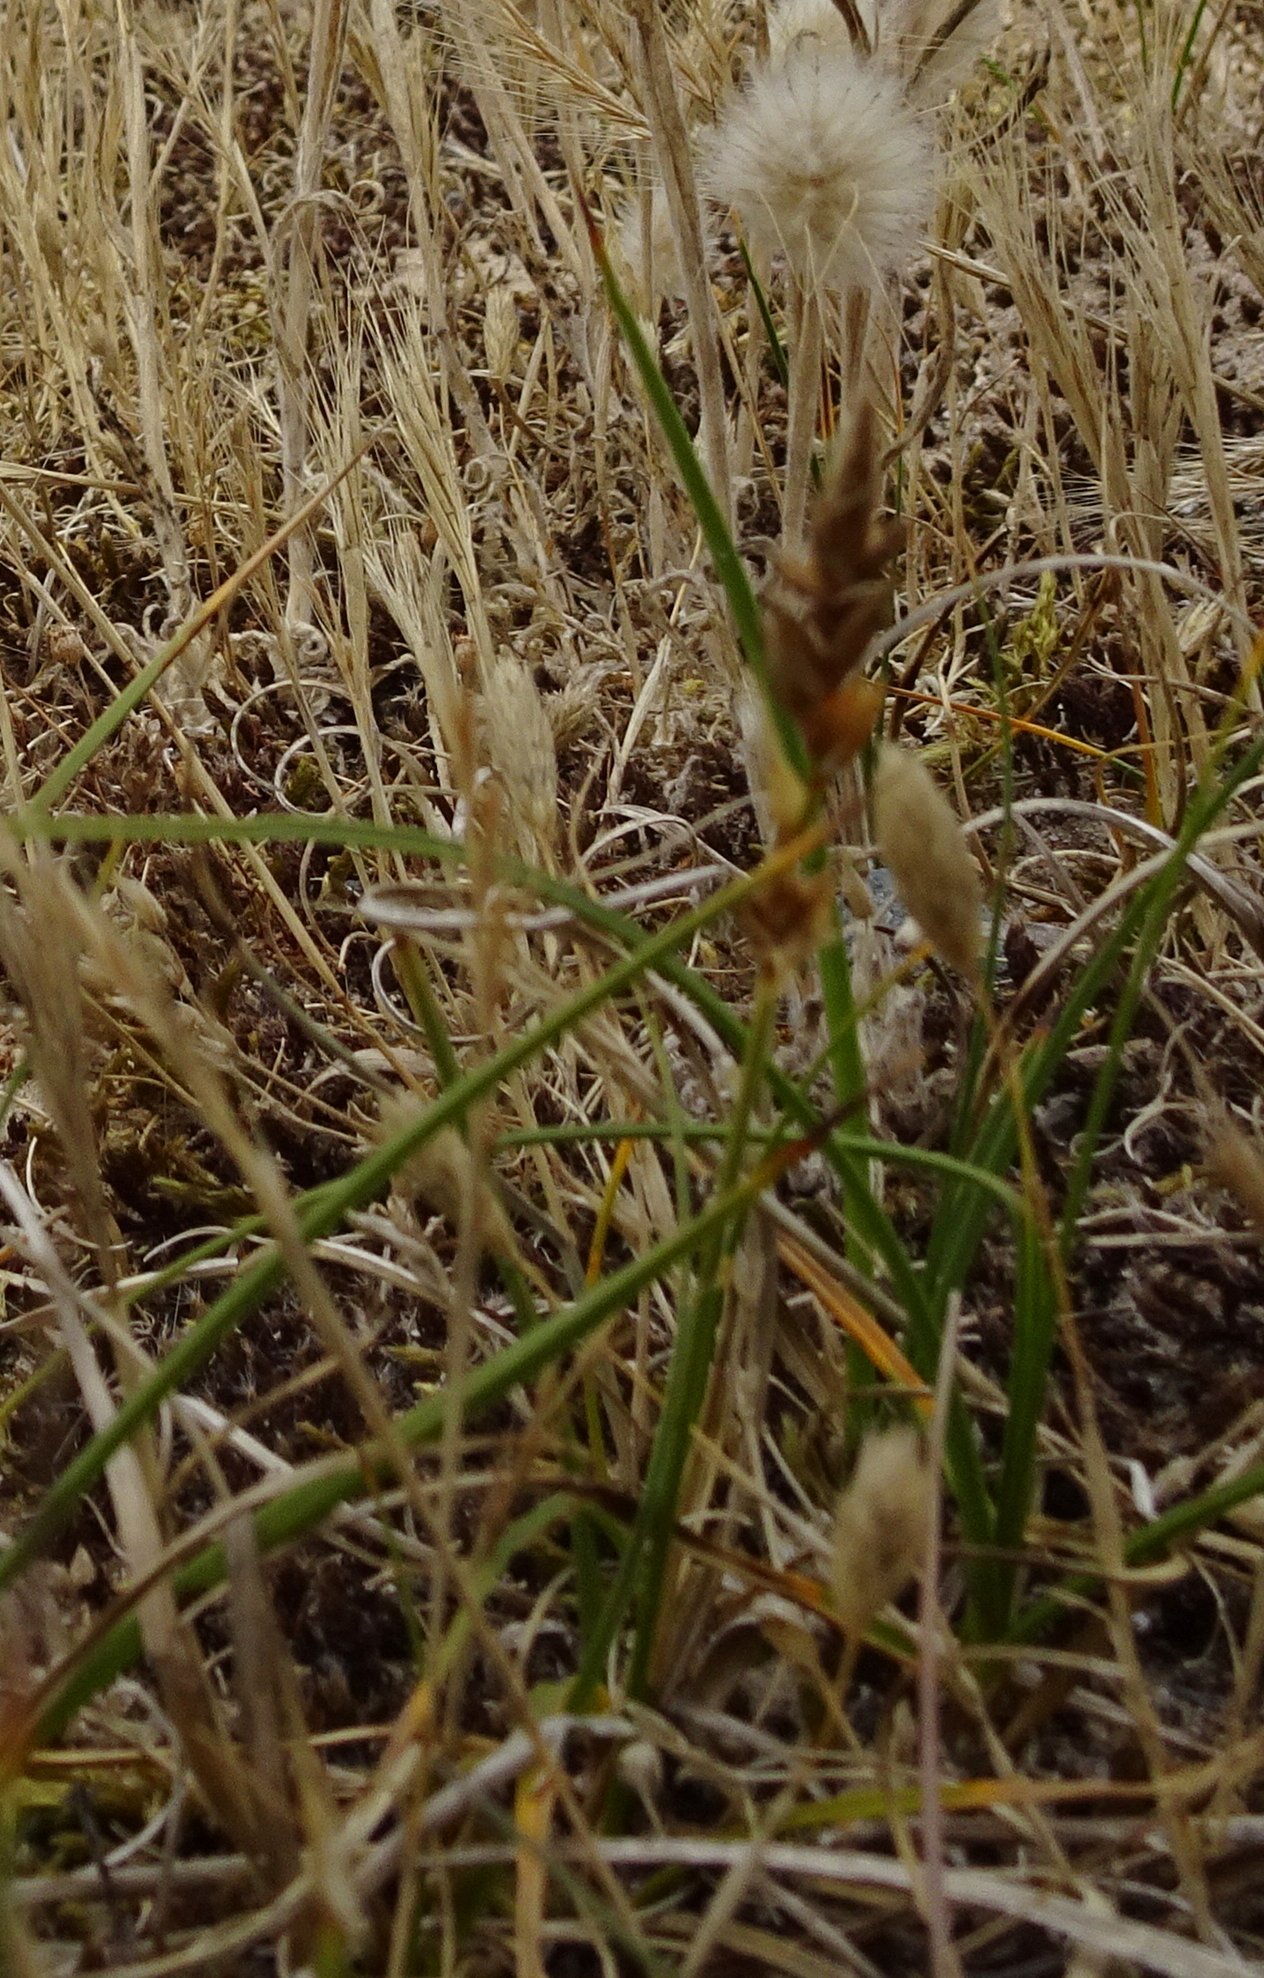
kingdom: Plantae
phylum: Tracheophyta
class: Liliopsida
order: Poales
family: Poaceae
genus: Phleum
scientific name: Phleum arenarium
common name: Sand cat's-tail
